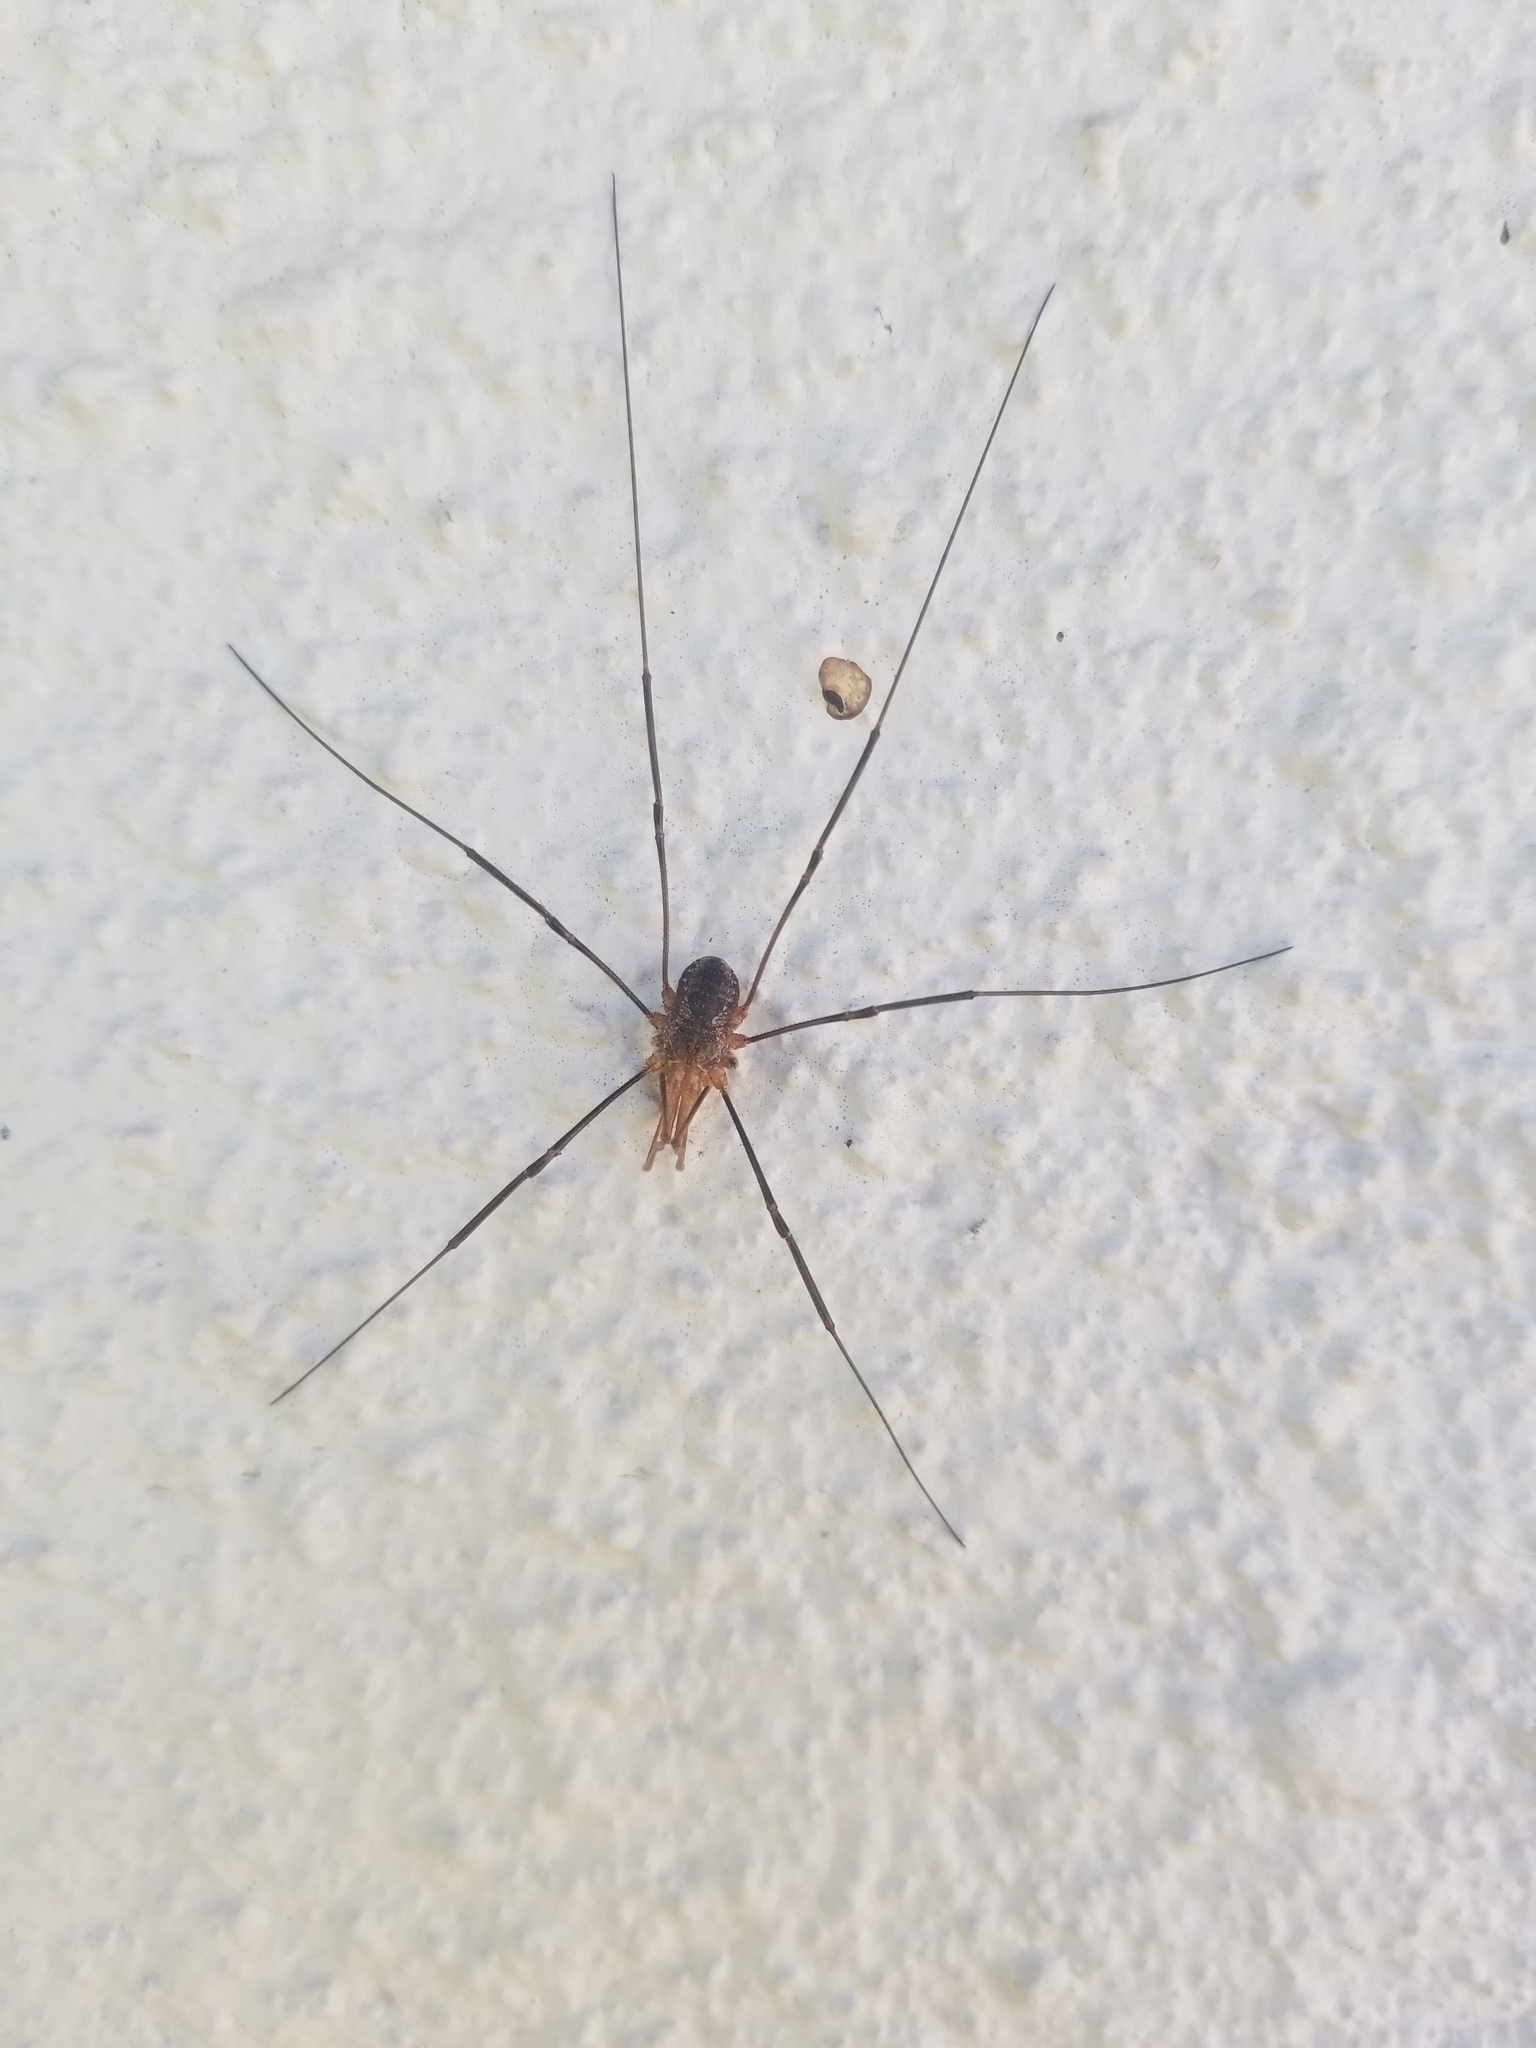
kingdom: Animalia
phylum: Arthropoda
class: Arachnida
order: Opiliones
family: Phalangiidae
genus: Phalangium
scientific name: Phalangium opilio
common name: Daddy longleg
